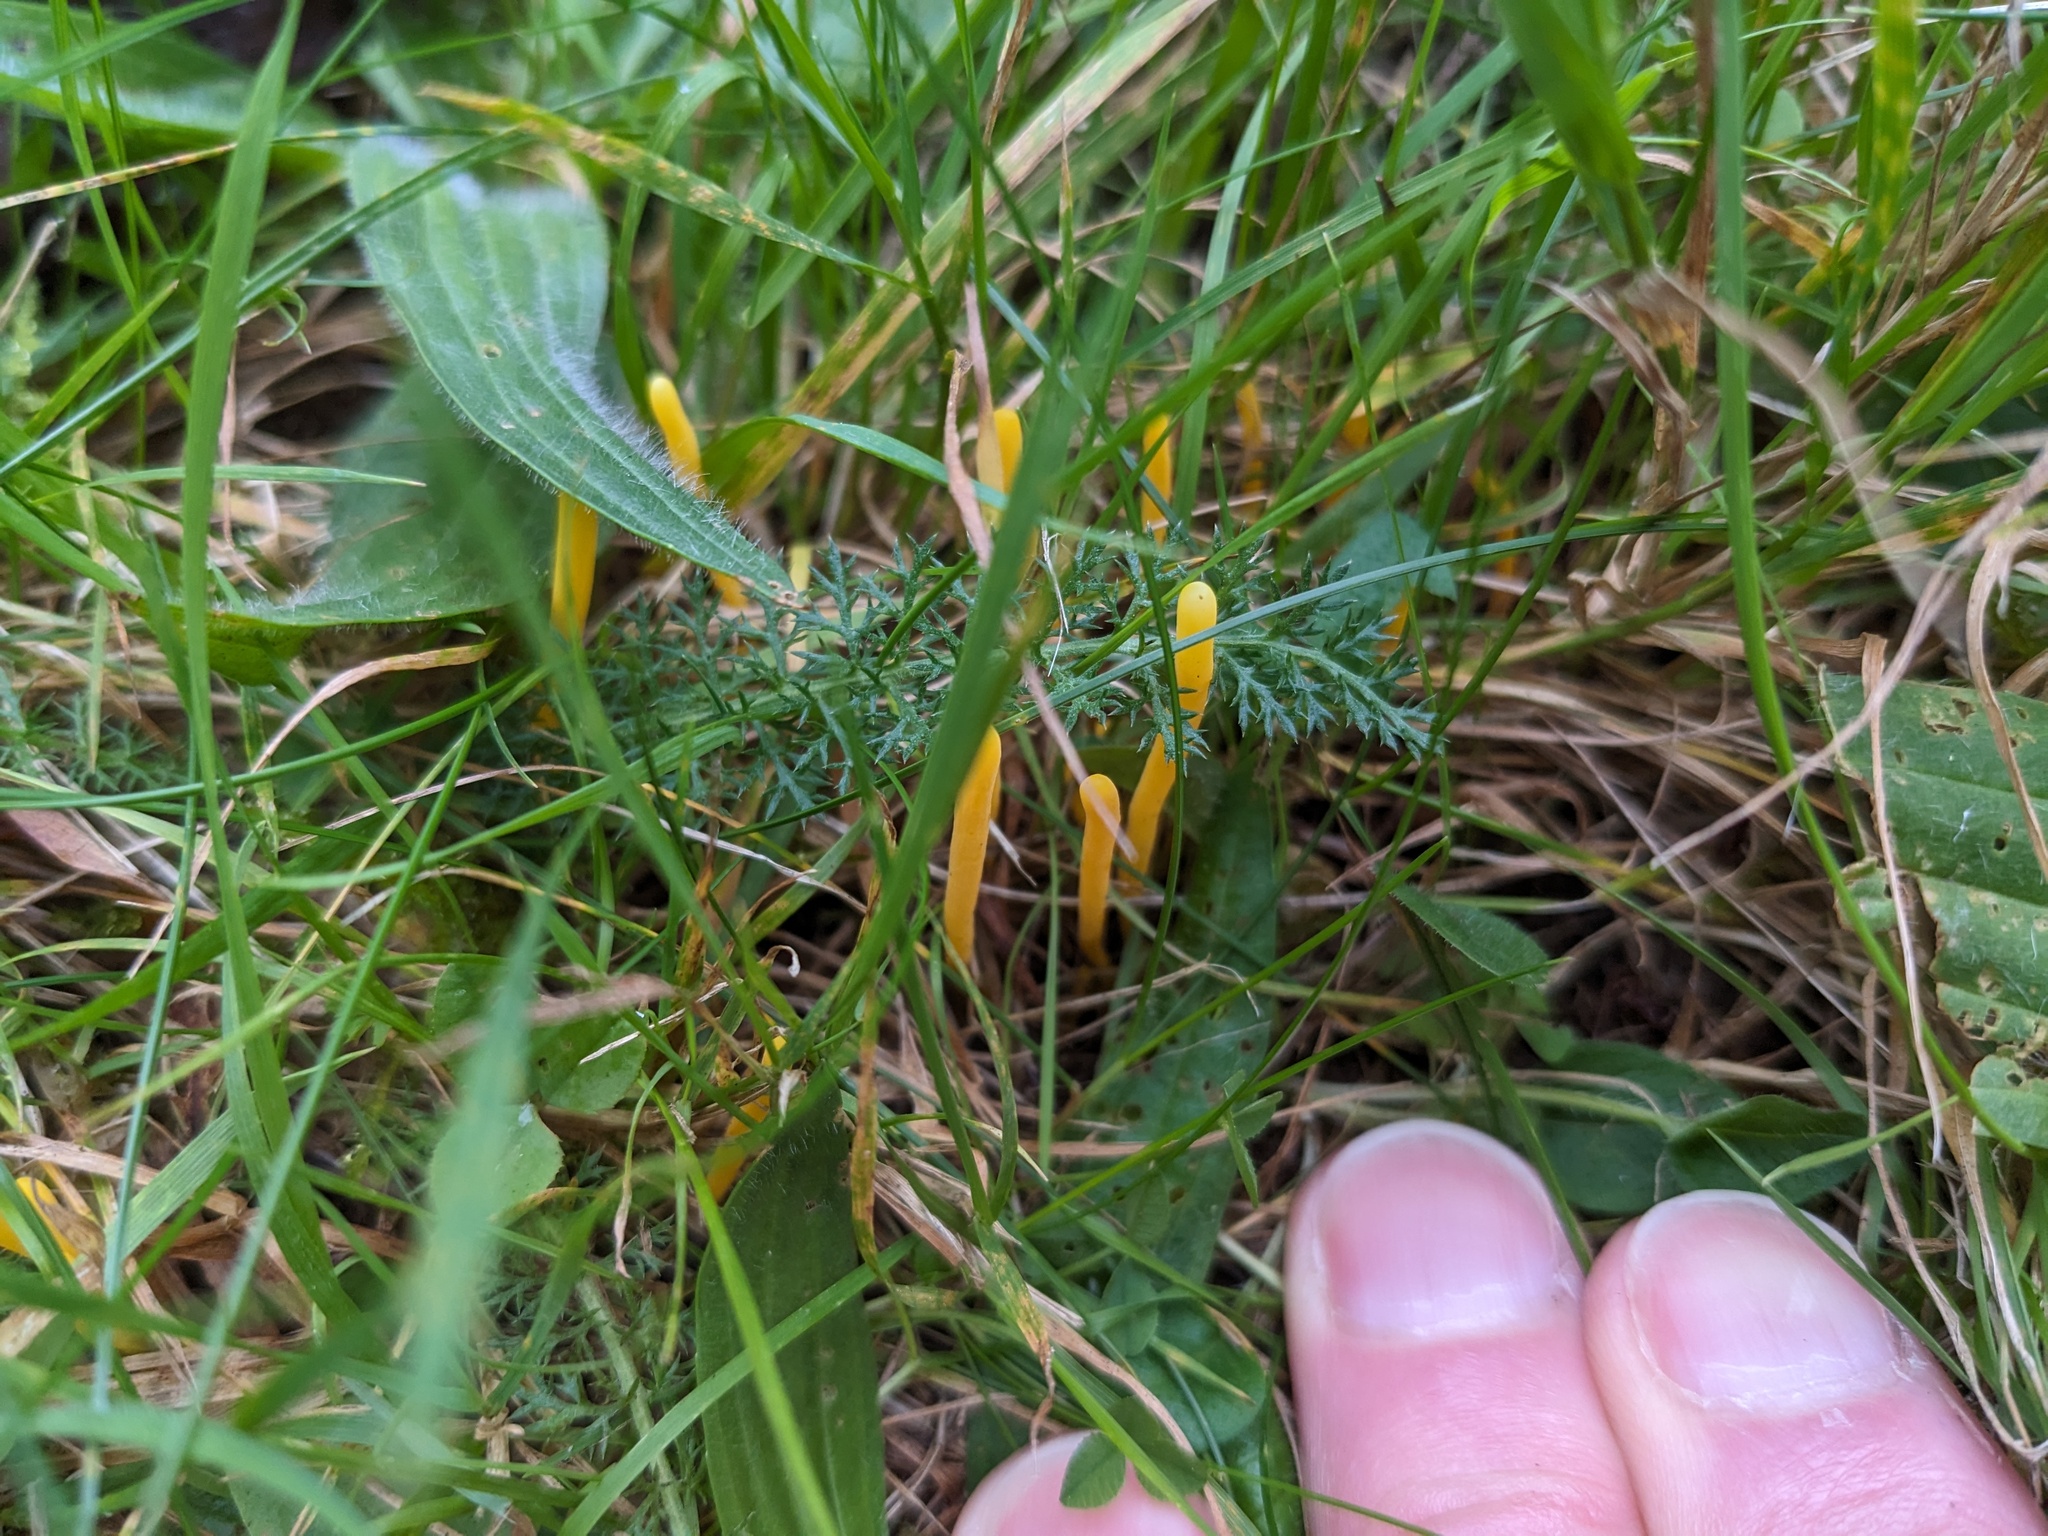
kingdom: Fungi
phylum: Basidiomycota
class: Agaricomycetes
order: Agaricales
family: Clavariaceae
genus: Clavulinopsis
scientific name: Clavulinopsis helvola
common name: Yellow club
